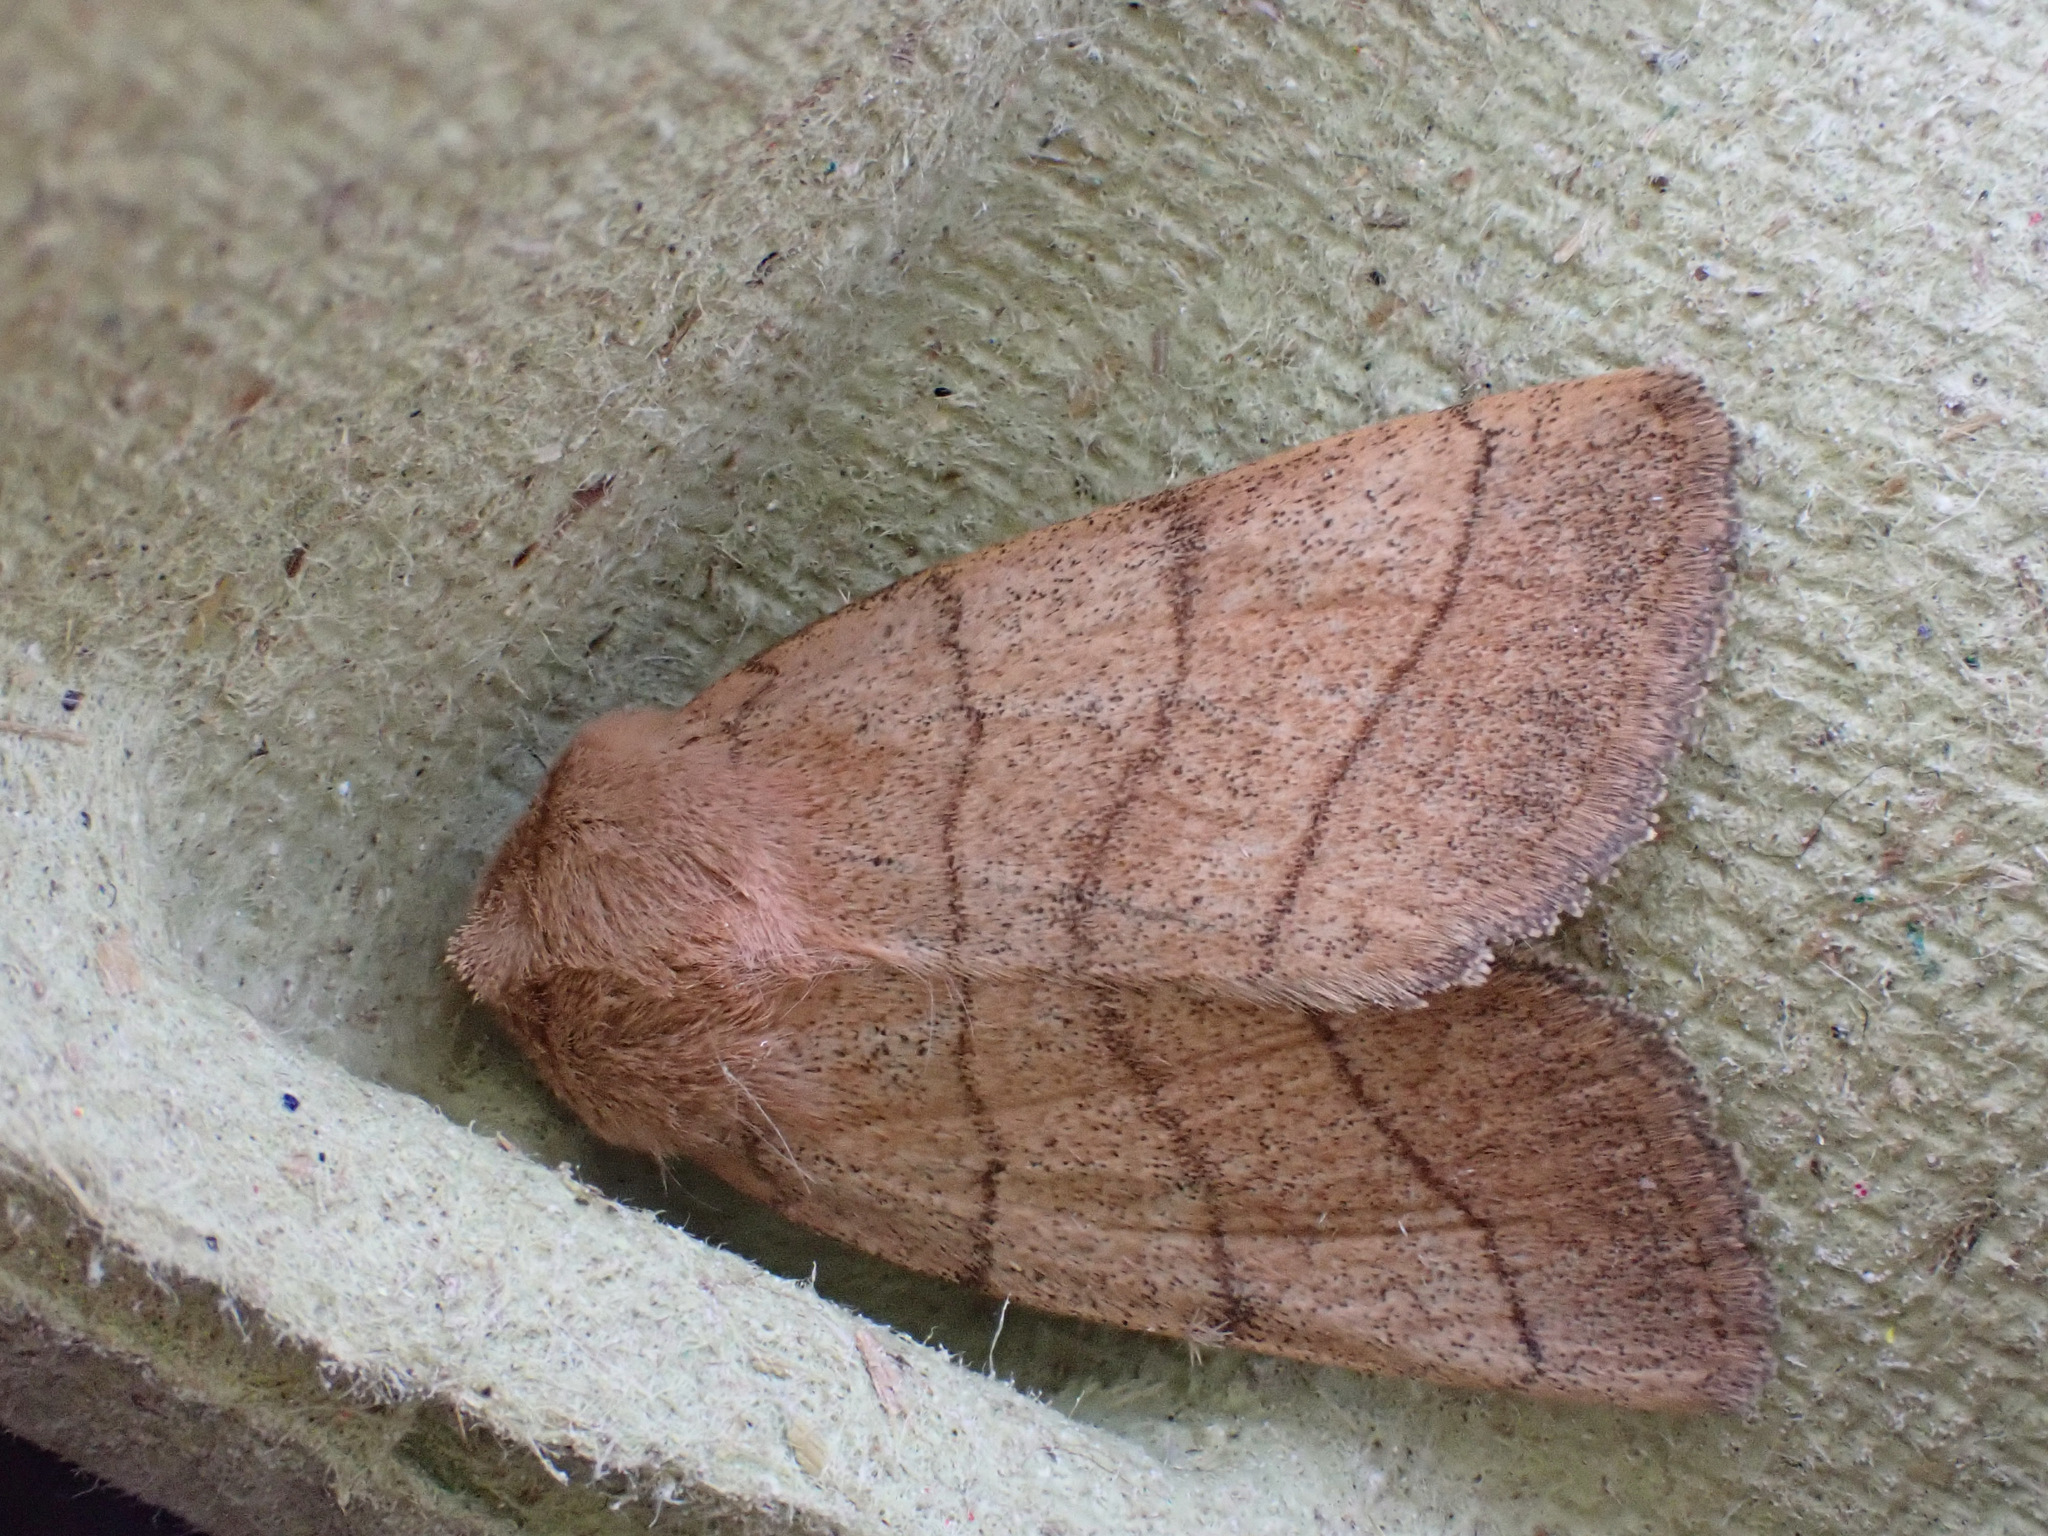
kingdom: Animalia
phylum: Arthropoda
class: Insecta
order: Lepidoptera
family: Noctuidae
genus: Charanyca
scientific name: Charanyca trigrammica
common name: Treble lines
